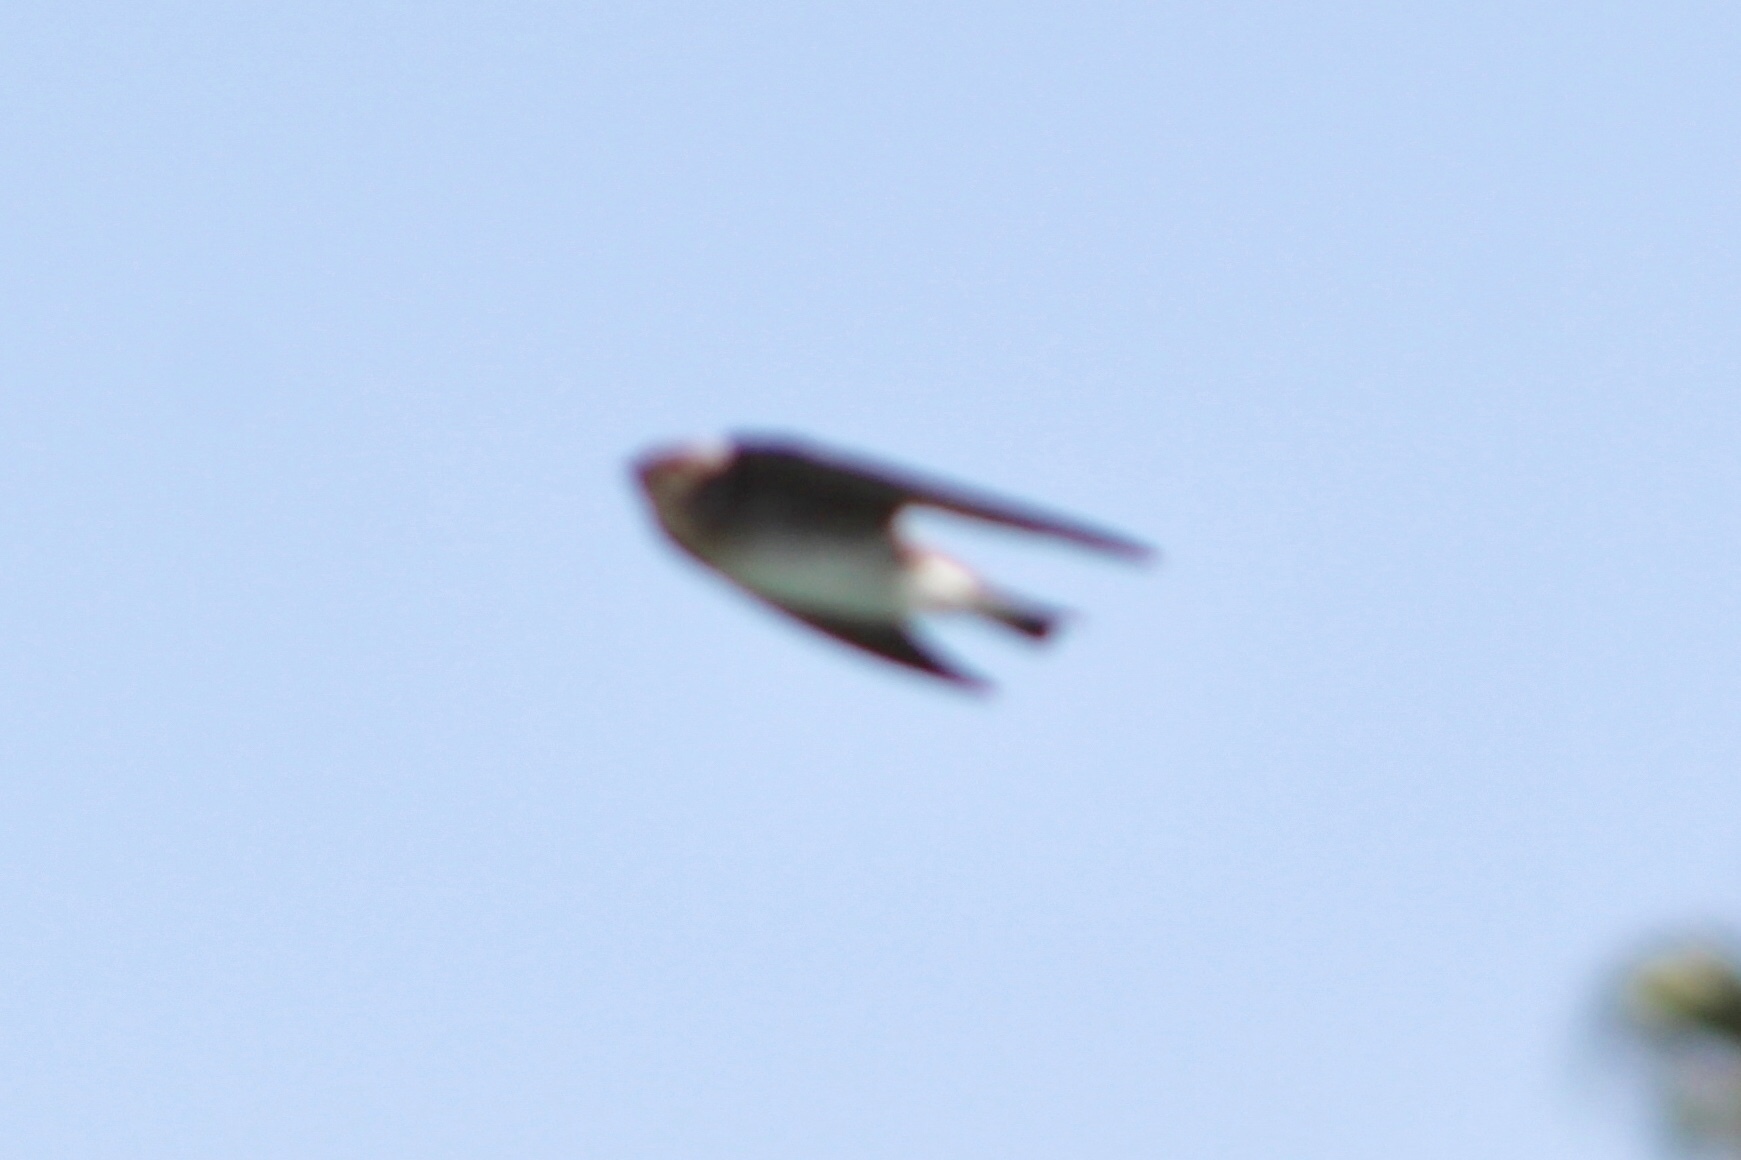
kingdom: Animalia
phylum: Chordata
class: Aves
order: Passeriformes
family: Hirundinidae
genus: Stelgidopteryx
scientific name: Stelgidopteryx serripennis
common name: Northern rough-winged swallow
